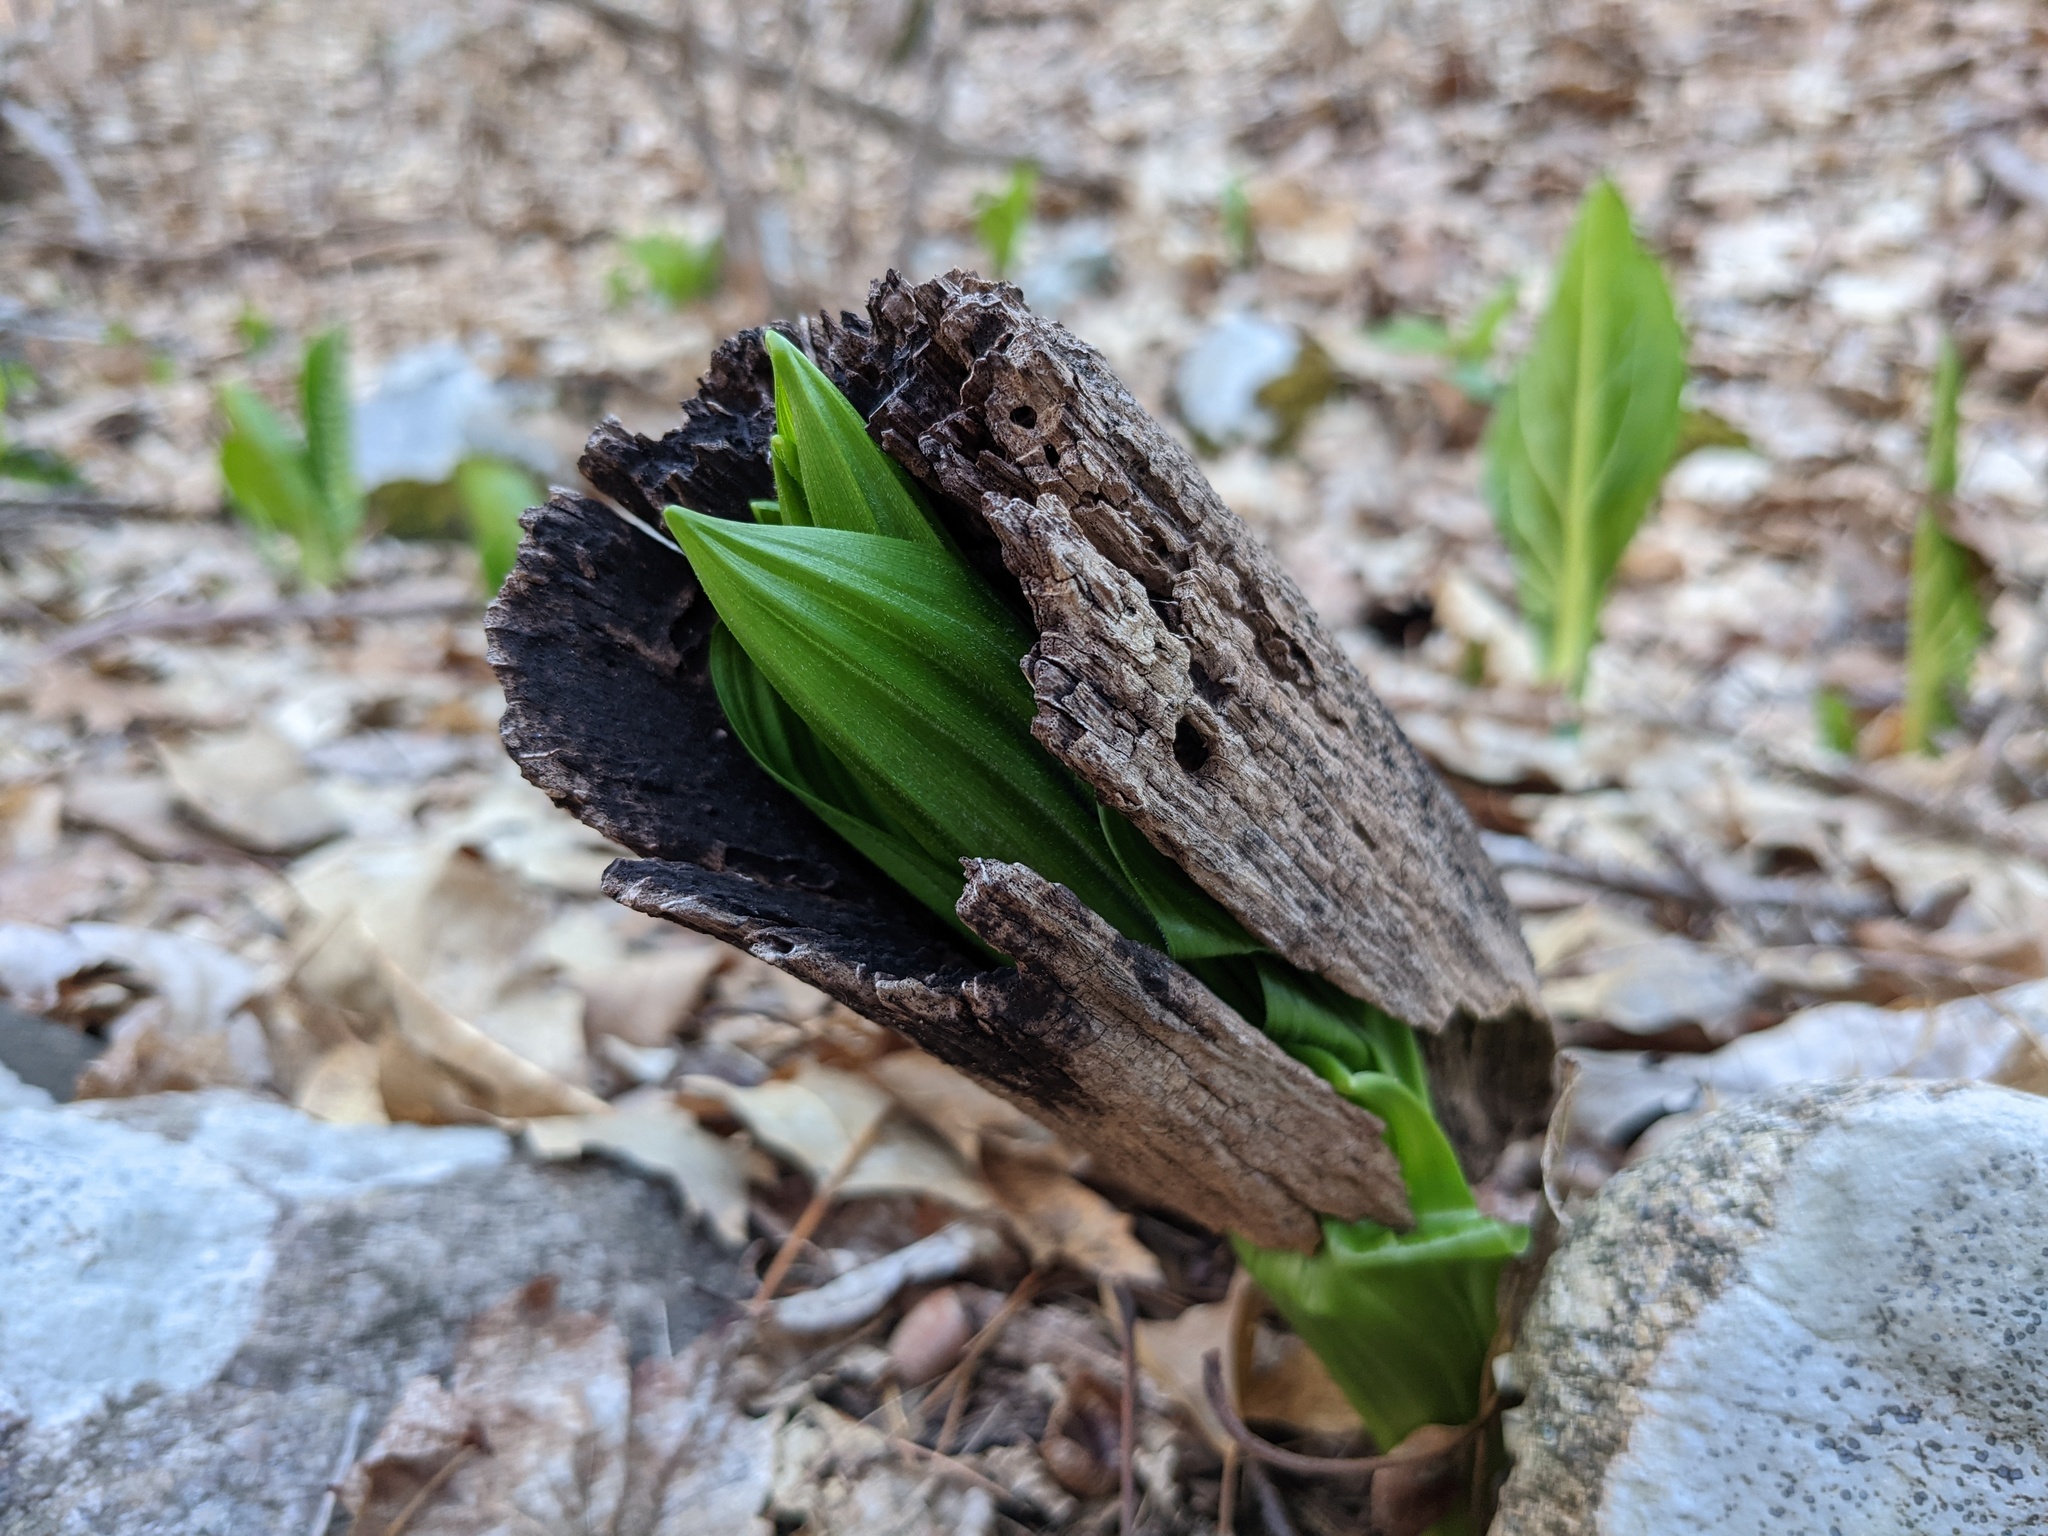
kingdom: Plantae
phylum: Tracheophyta
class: Liliopsida
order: Liliales
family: Melanthiaceae
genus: Veratrum
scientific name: Veratrum viride
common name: American false hellebore
